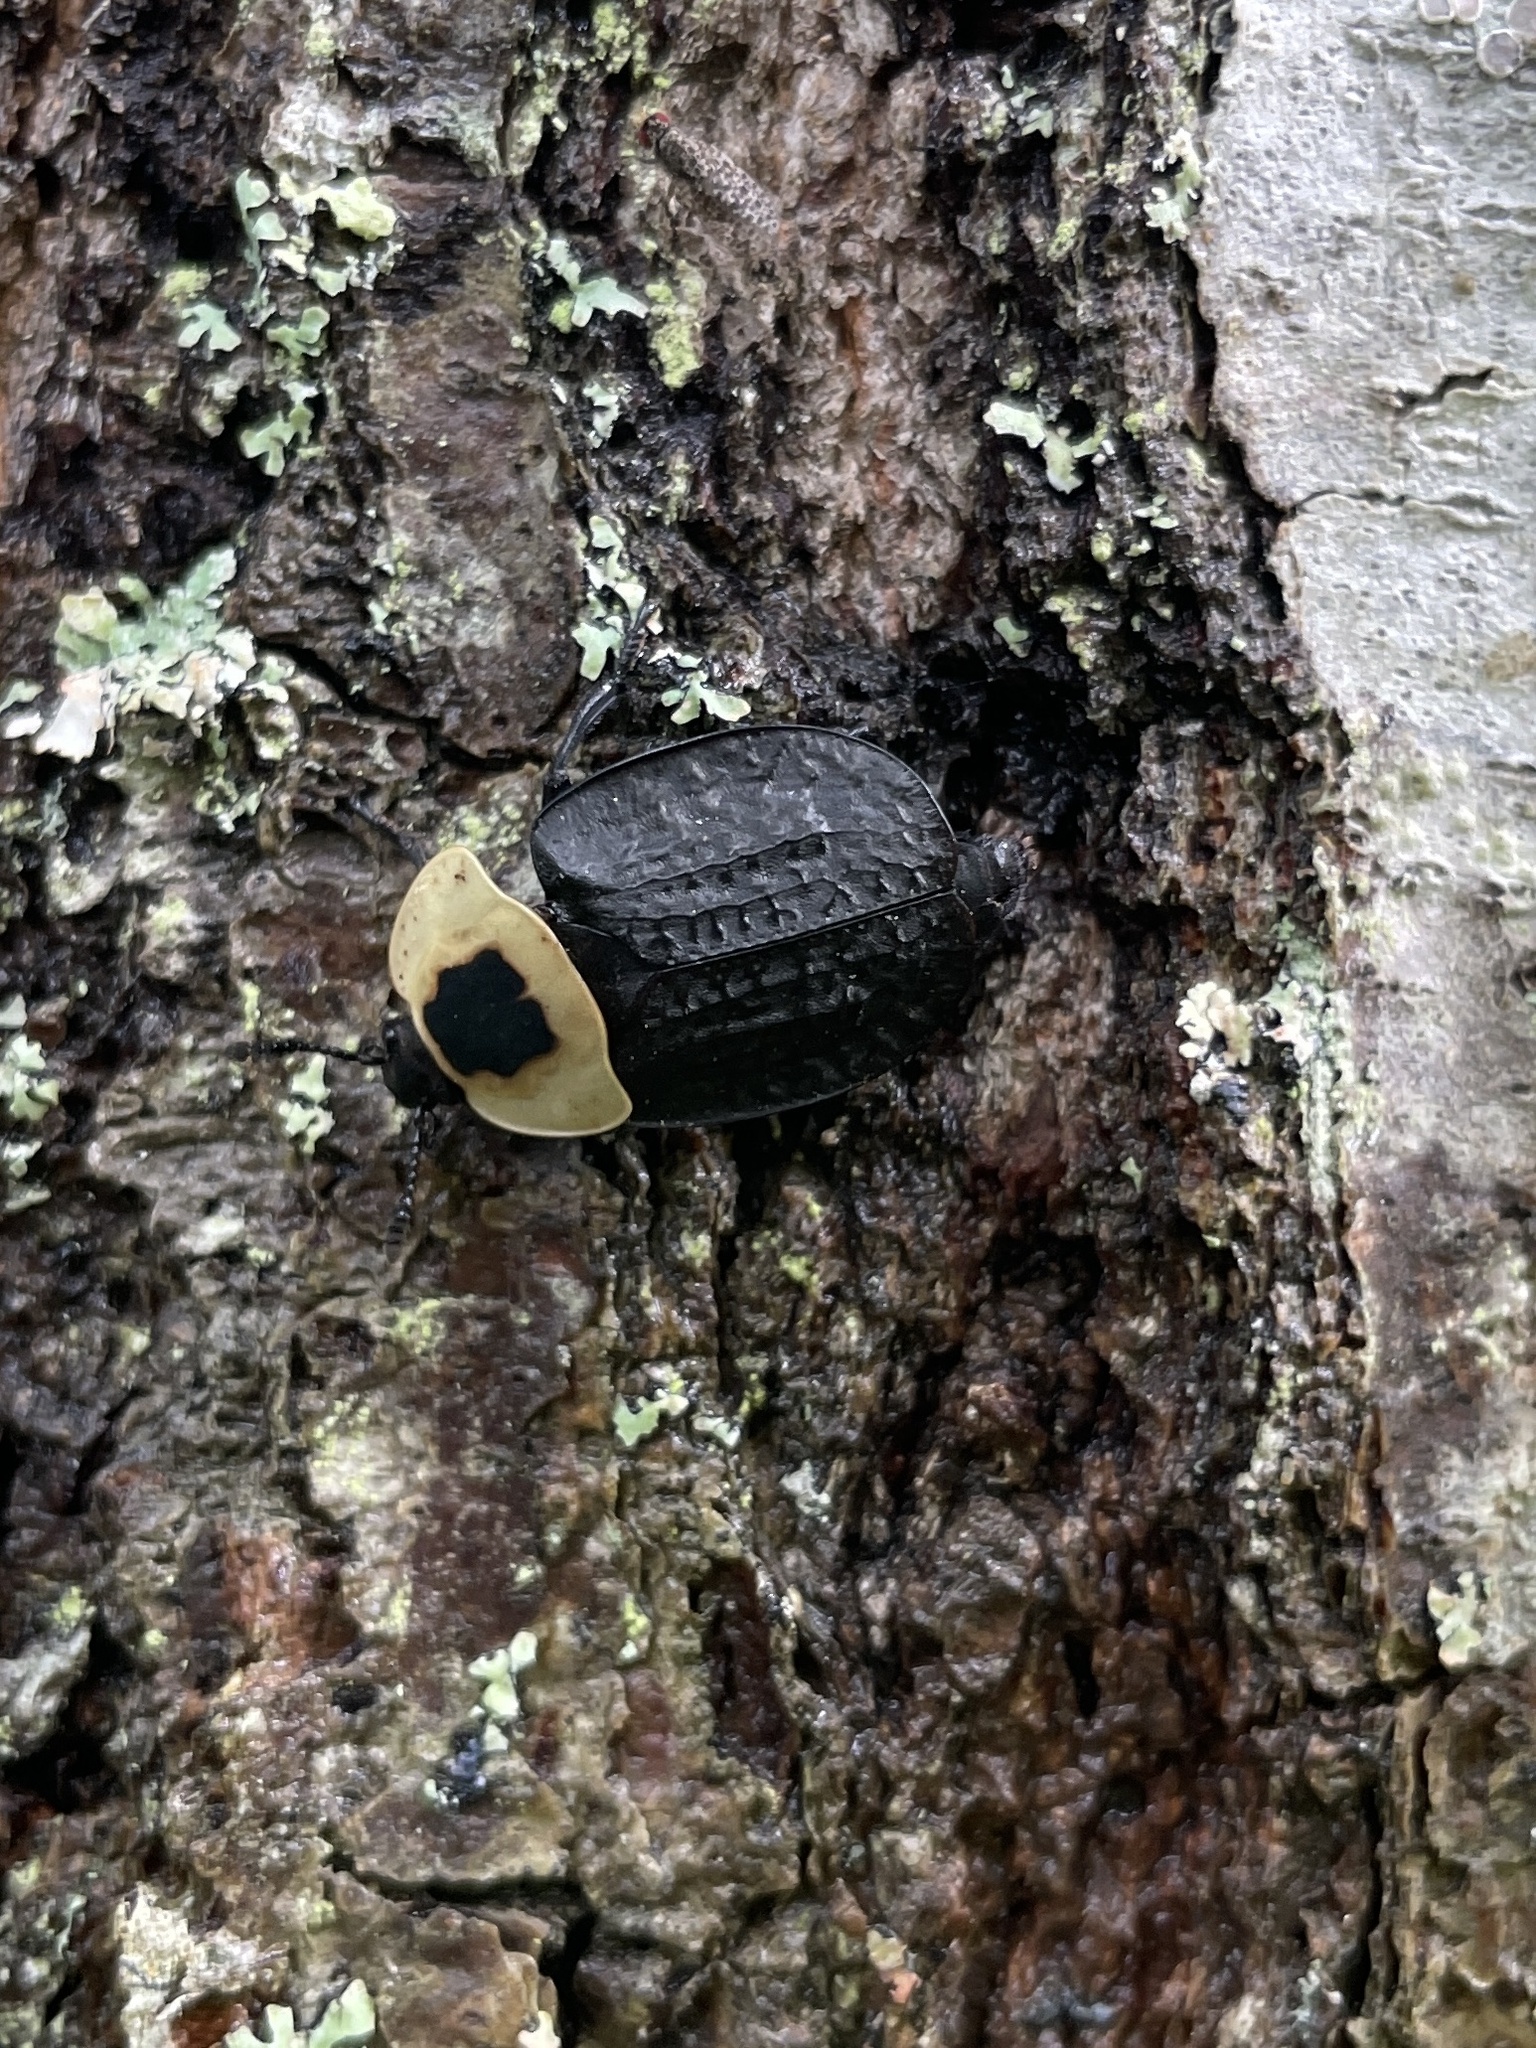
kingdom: Animalia
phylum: Arthropoda
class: Insecta
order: Coleoptera
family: Staphylinidae
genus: Necrophila
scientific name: Necrophila americana
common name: American carrion beetle
